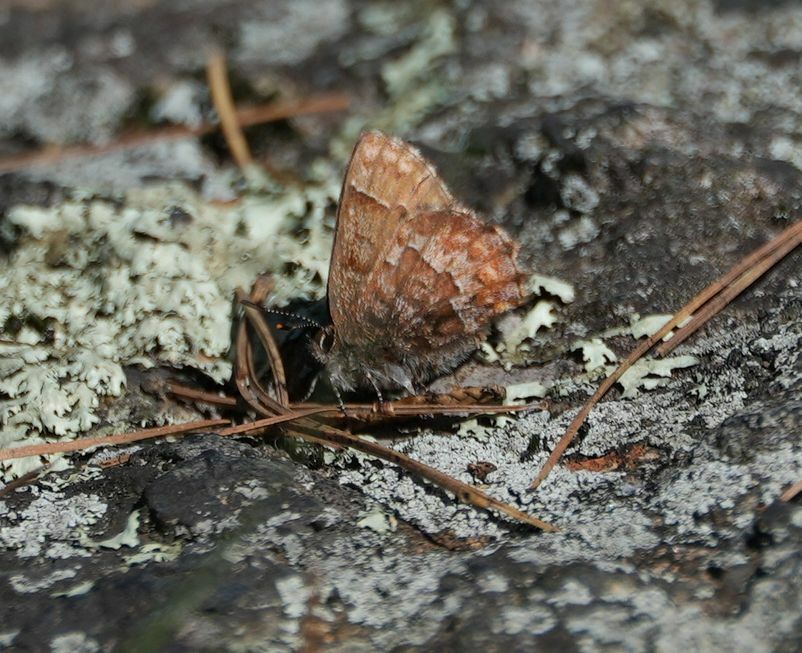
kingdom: Animalia
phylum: Arthropoda
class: Insecta
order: Lepidoptera
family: Lycaenidae
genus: Incisalia
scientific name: Incisalia niphon
